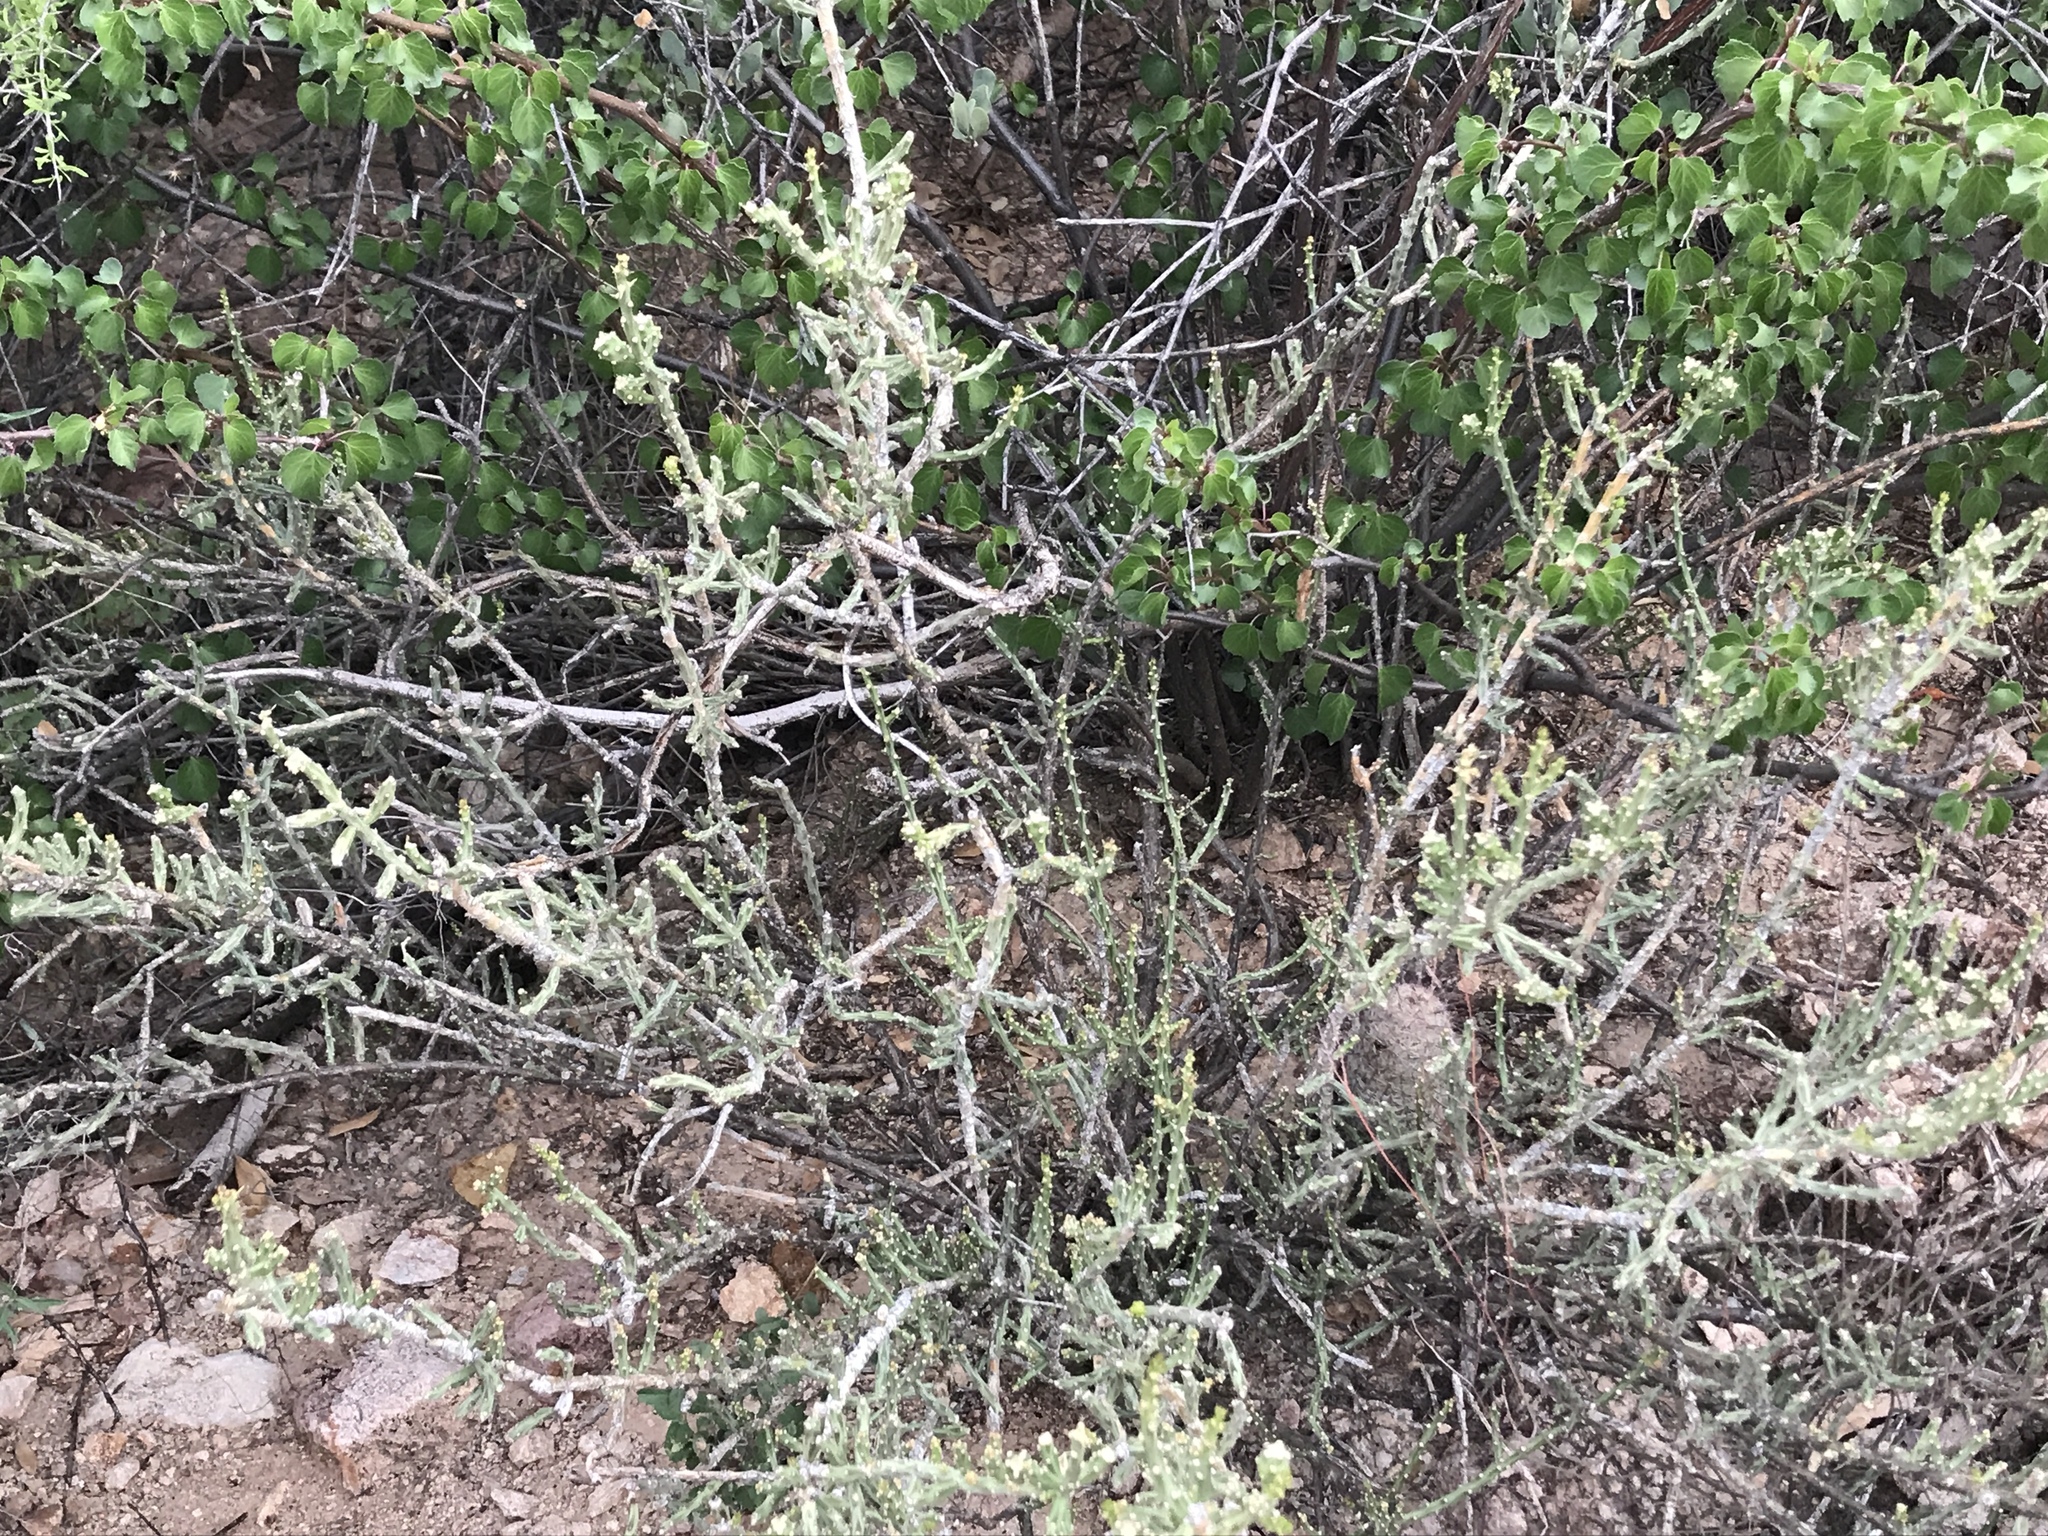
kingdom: Plantae
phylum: Tracheophyta
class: Magnoliopsida
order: Caryophyllales
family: Cactaceae
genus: Cylindropuntia
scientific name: Cylindropuntia leptocaulis
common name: Christmas cactus
